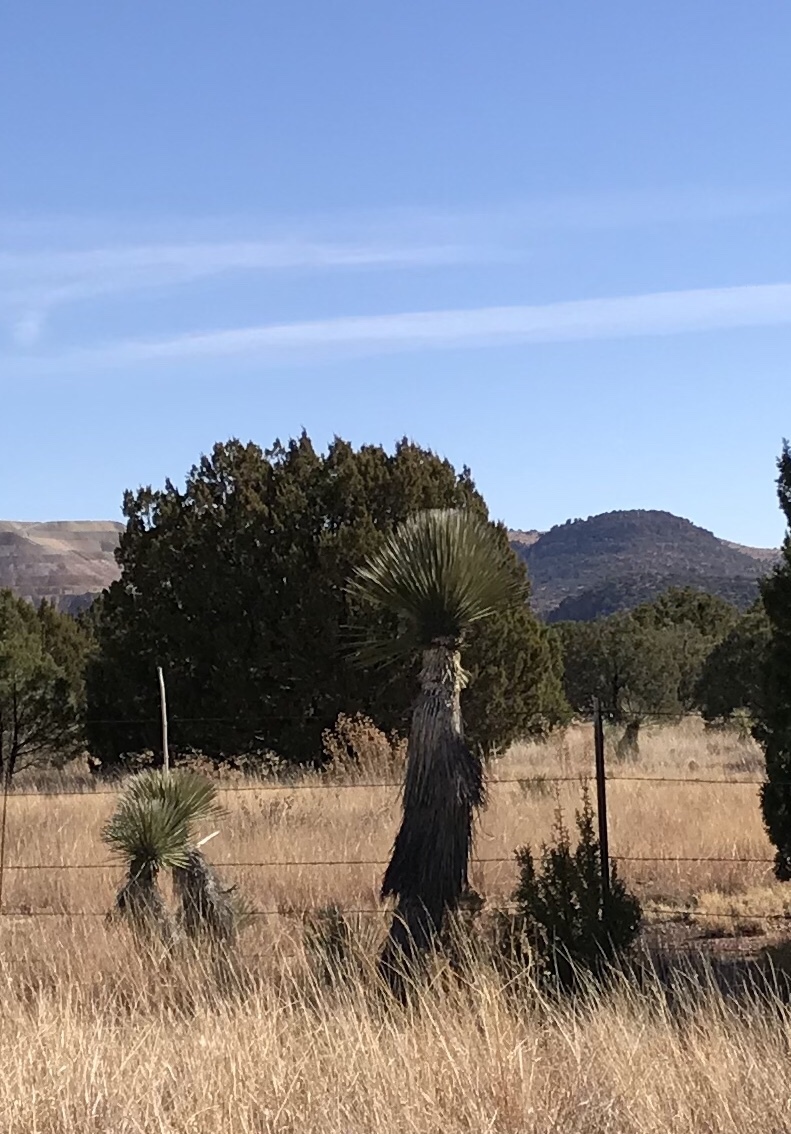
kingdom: Plantae
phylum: Tracheophyta
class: Liliopsida
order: Asparagales
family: Asparagaceae
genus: Yucca
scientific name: Yucca elata
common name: Palmella
